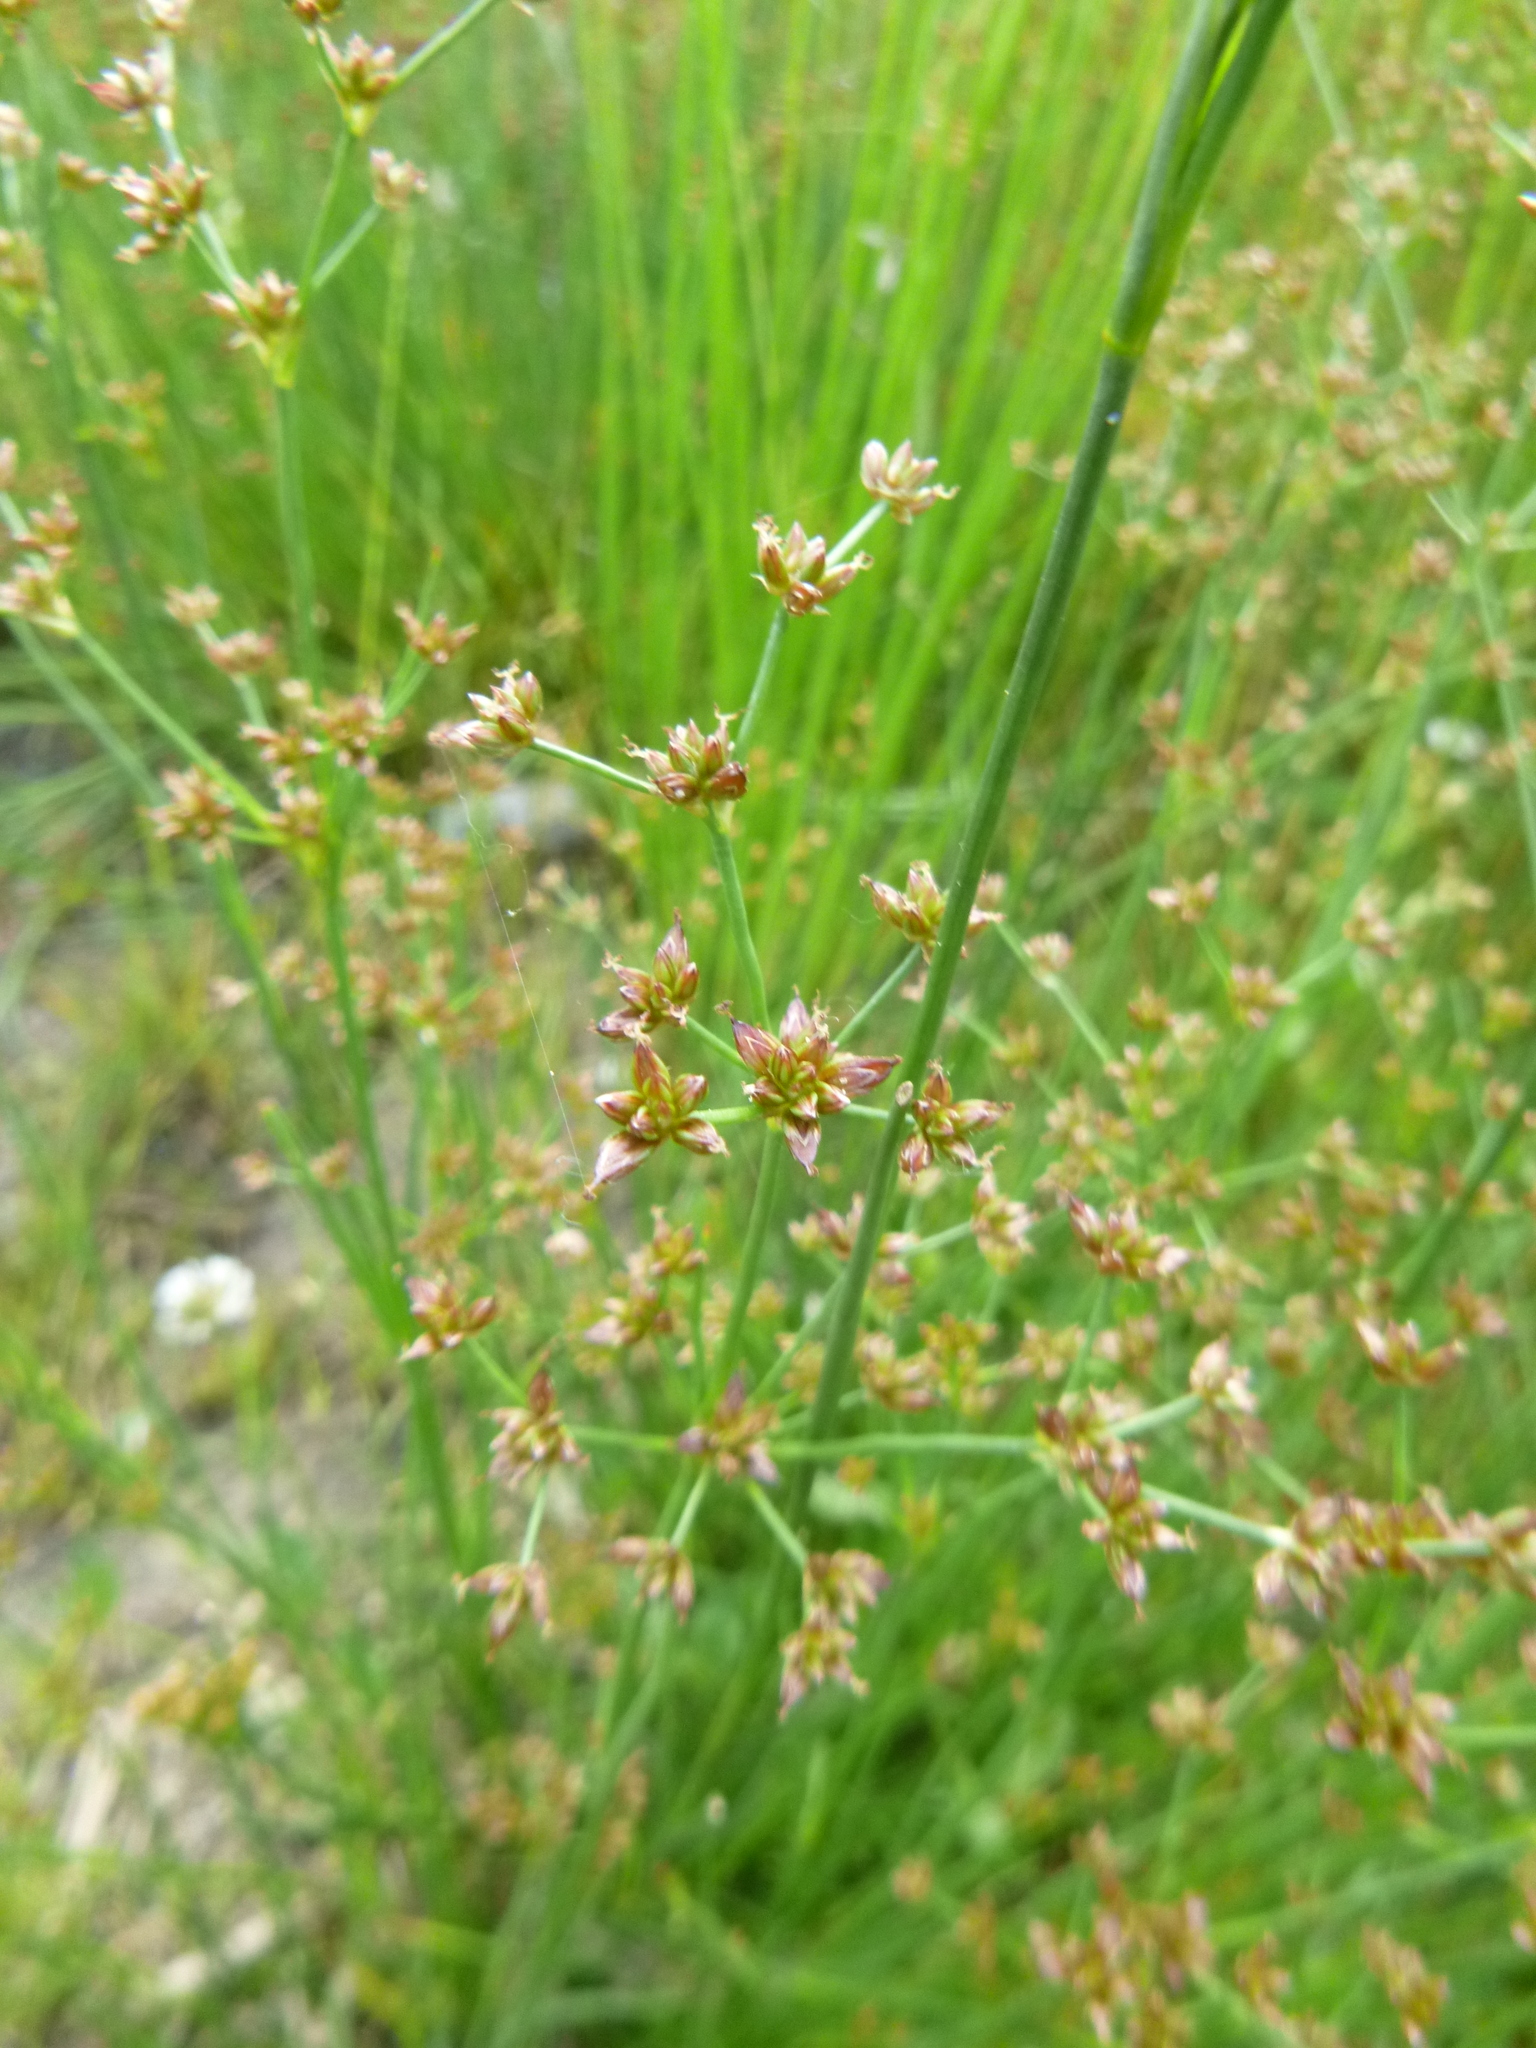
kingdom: Plantae
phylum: Tracheophyta
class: Liliopsida
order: Poales
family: Juncaceae
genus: Juncus
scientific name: Juncus articulatus
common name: Jointed rush
